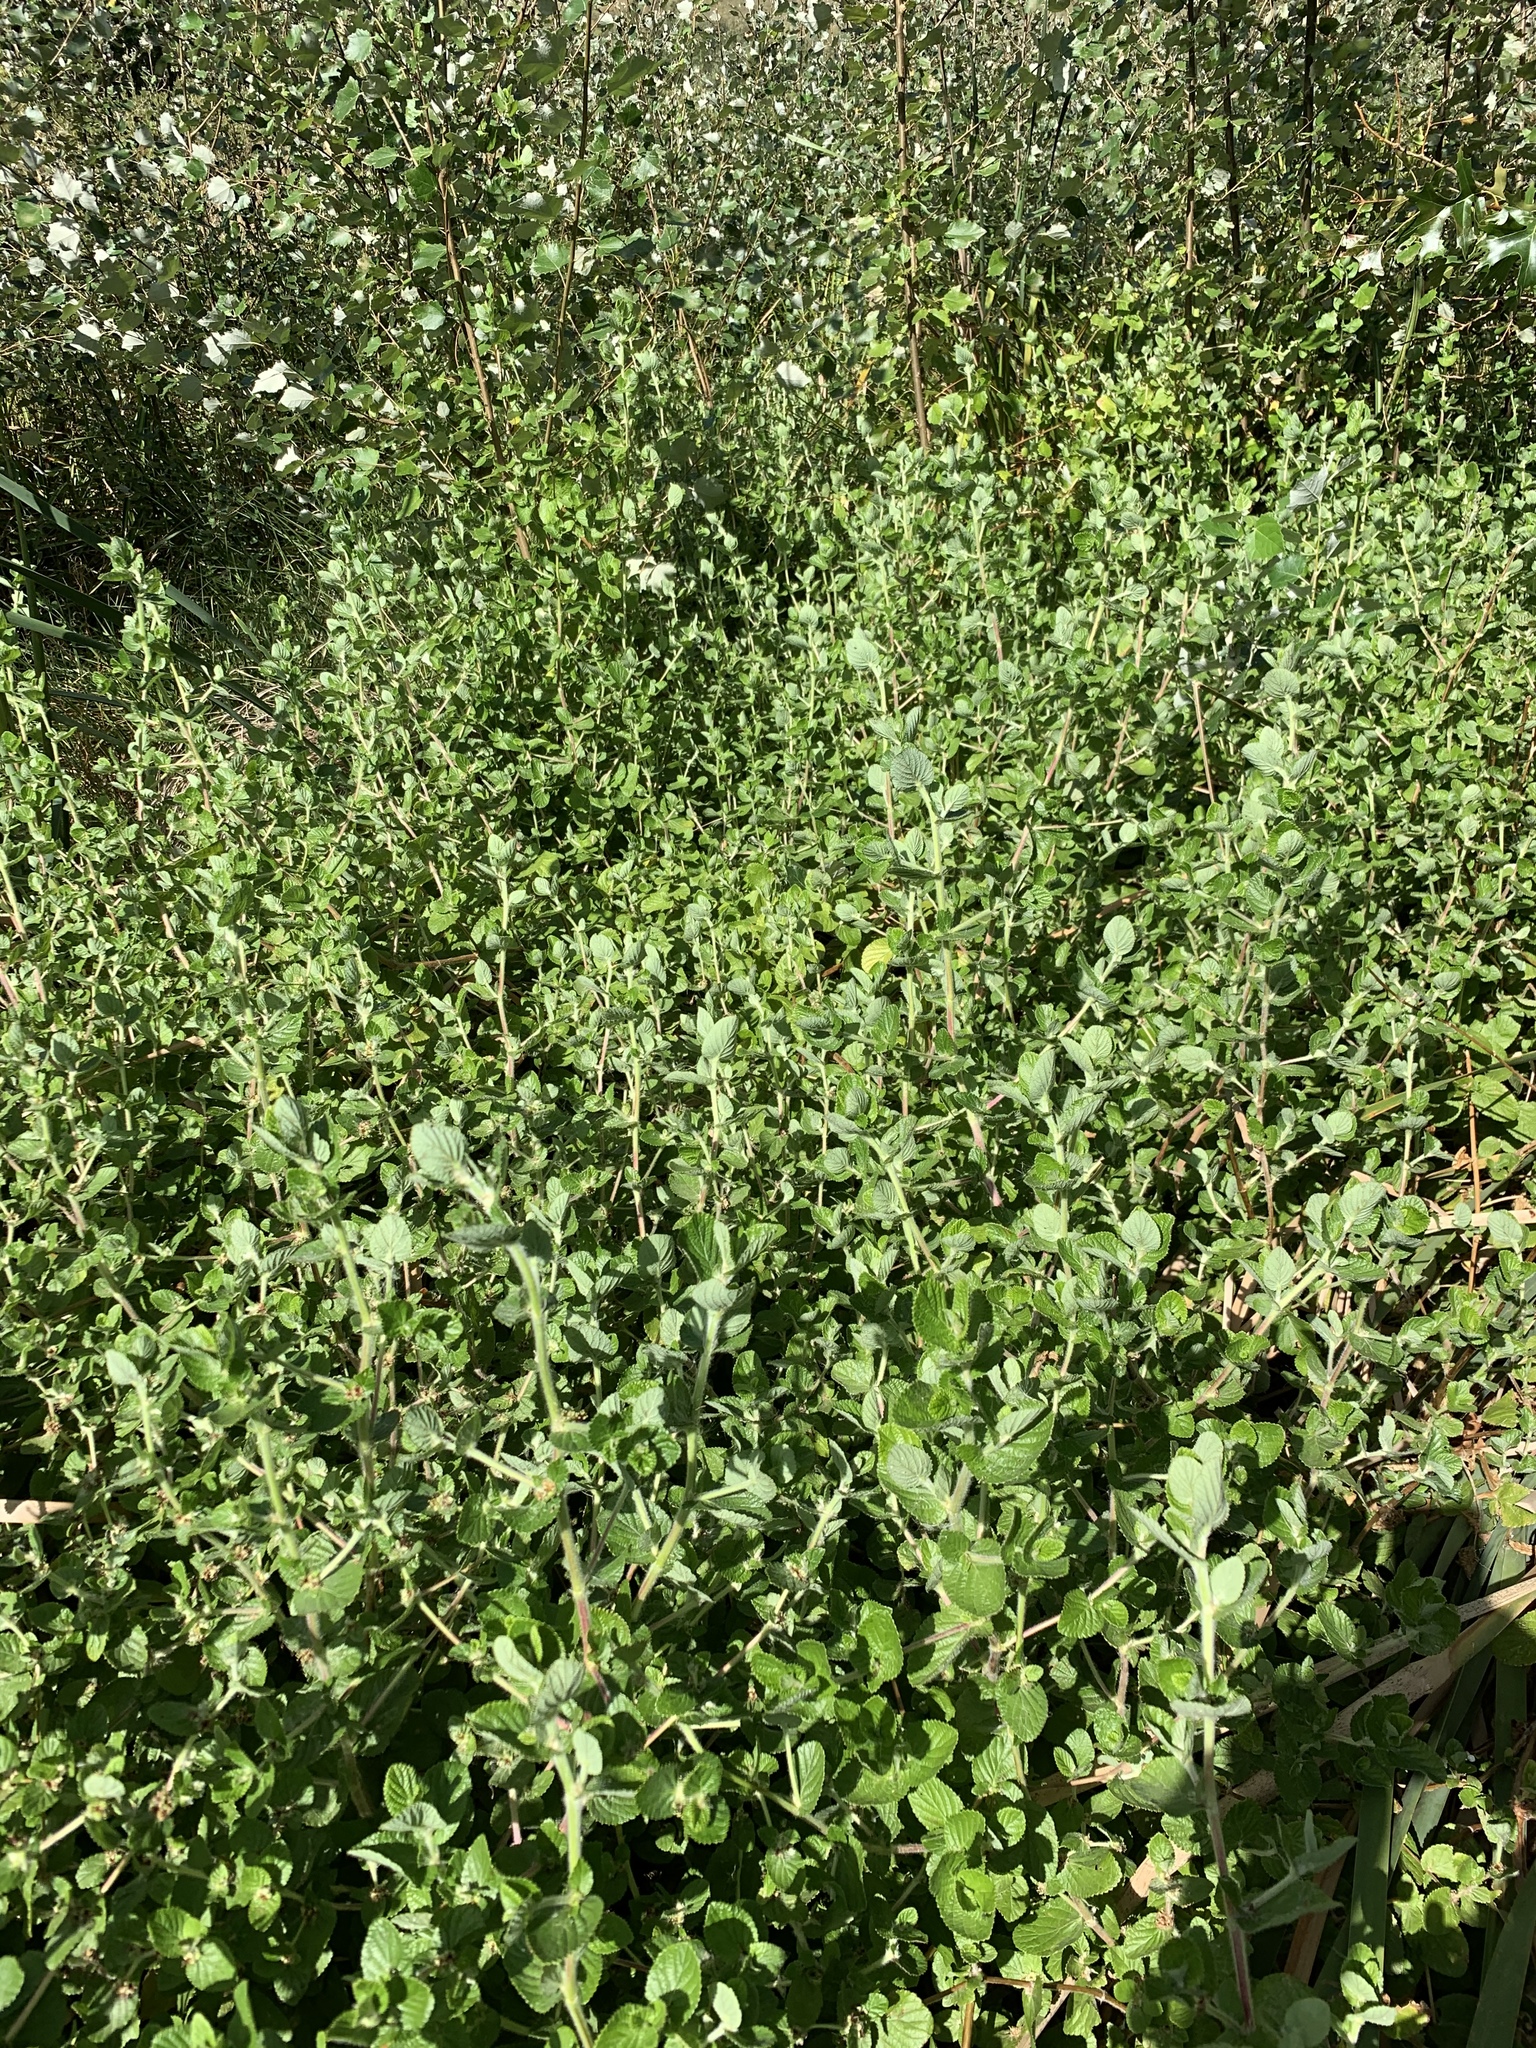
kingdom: Plantae
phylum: Tracheophyta
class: Magnoliopsida
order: Rosales
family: Rosaceae
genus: Cliffortia
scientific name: Cliffortia odorata
